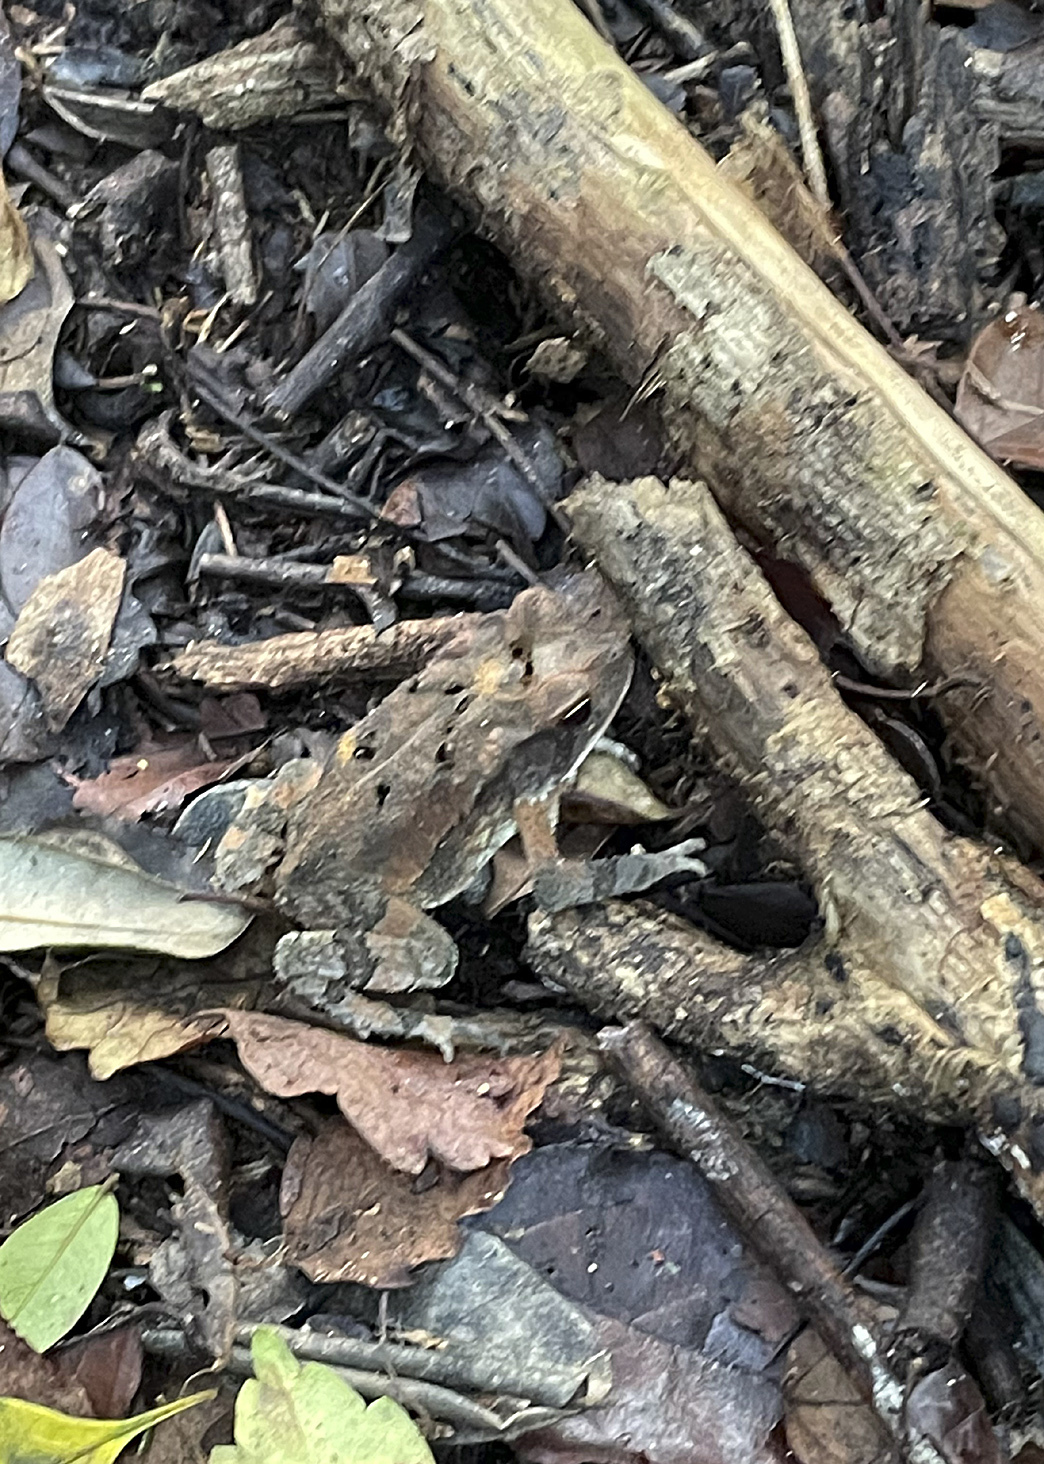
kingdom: Animalia
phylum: Chordata
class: Amphibia
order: Anura
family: Bufonidae
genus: Incilius
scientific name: Incilius valliceps
